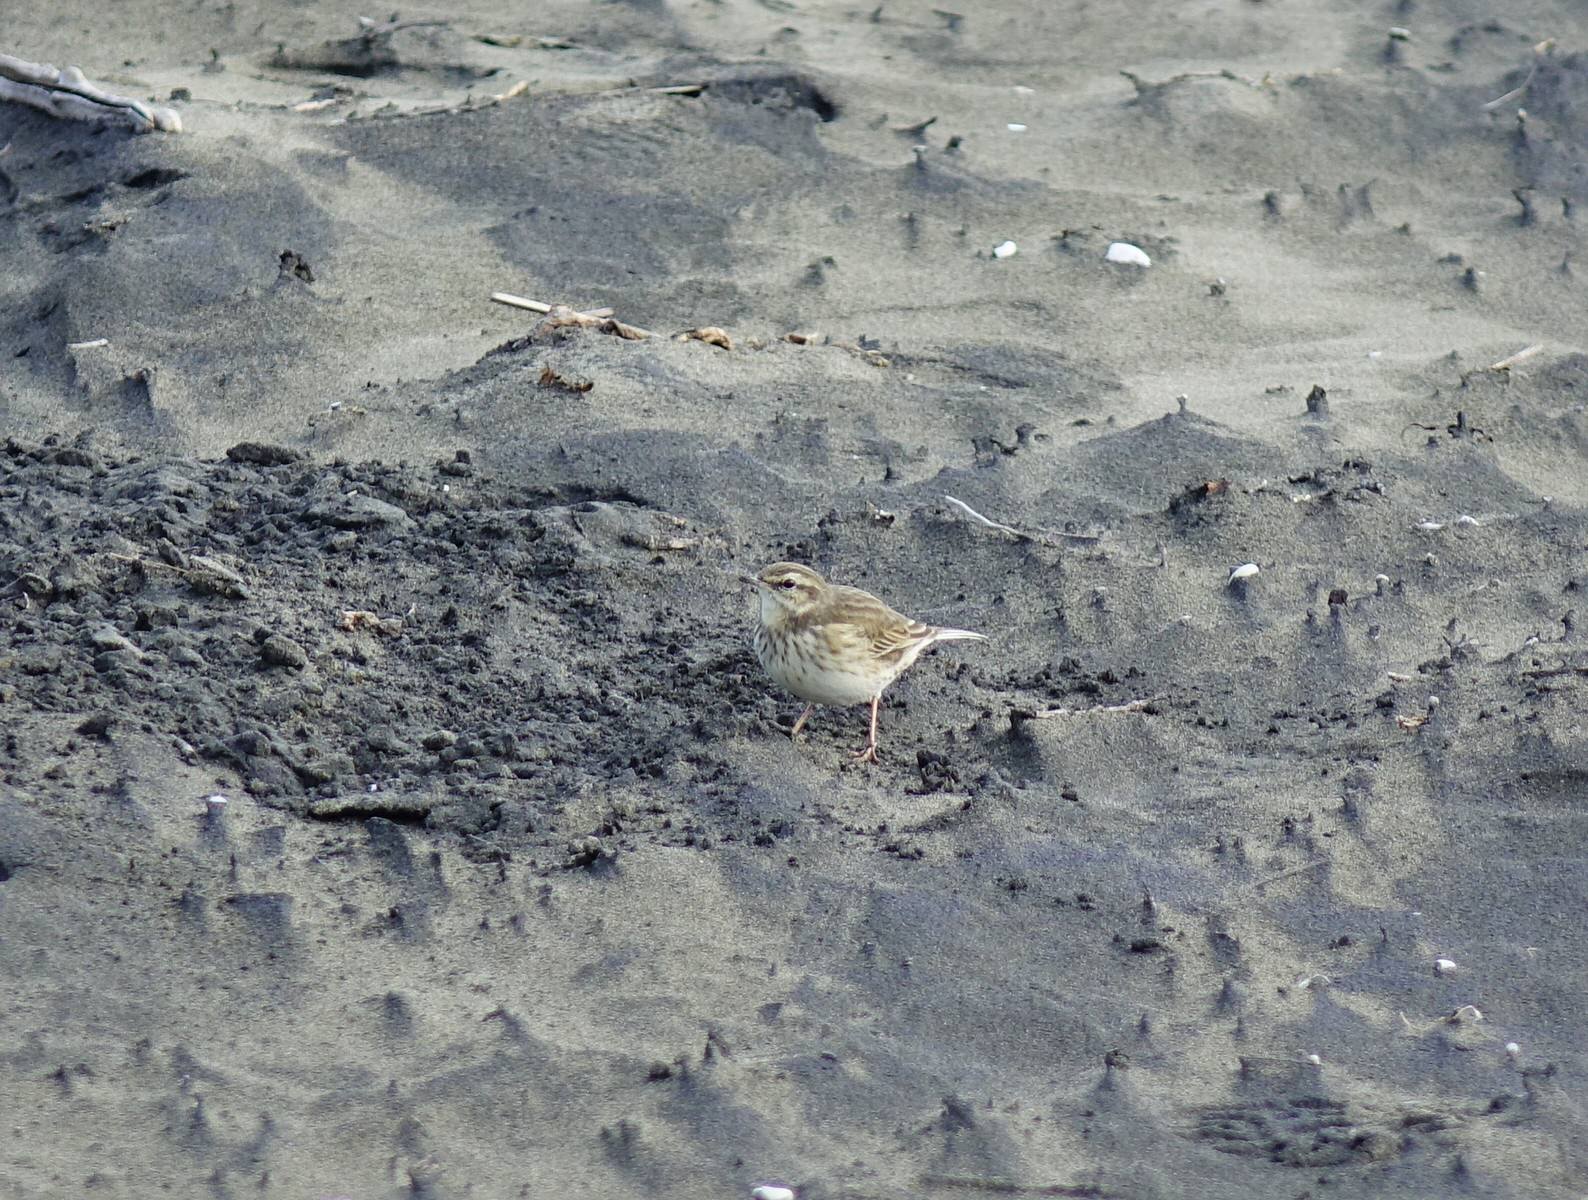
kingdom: Animalia
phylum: Chordata
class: Aves
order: Passeriformes
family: Motacillidae
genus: Anthus
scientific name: Anthus novaeseelandiae
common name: New zealand pipit
